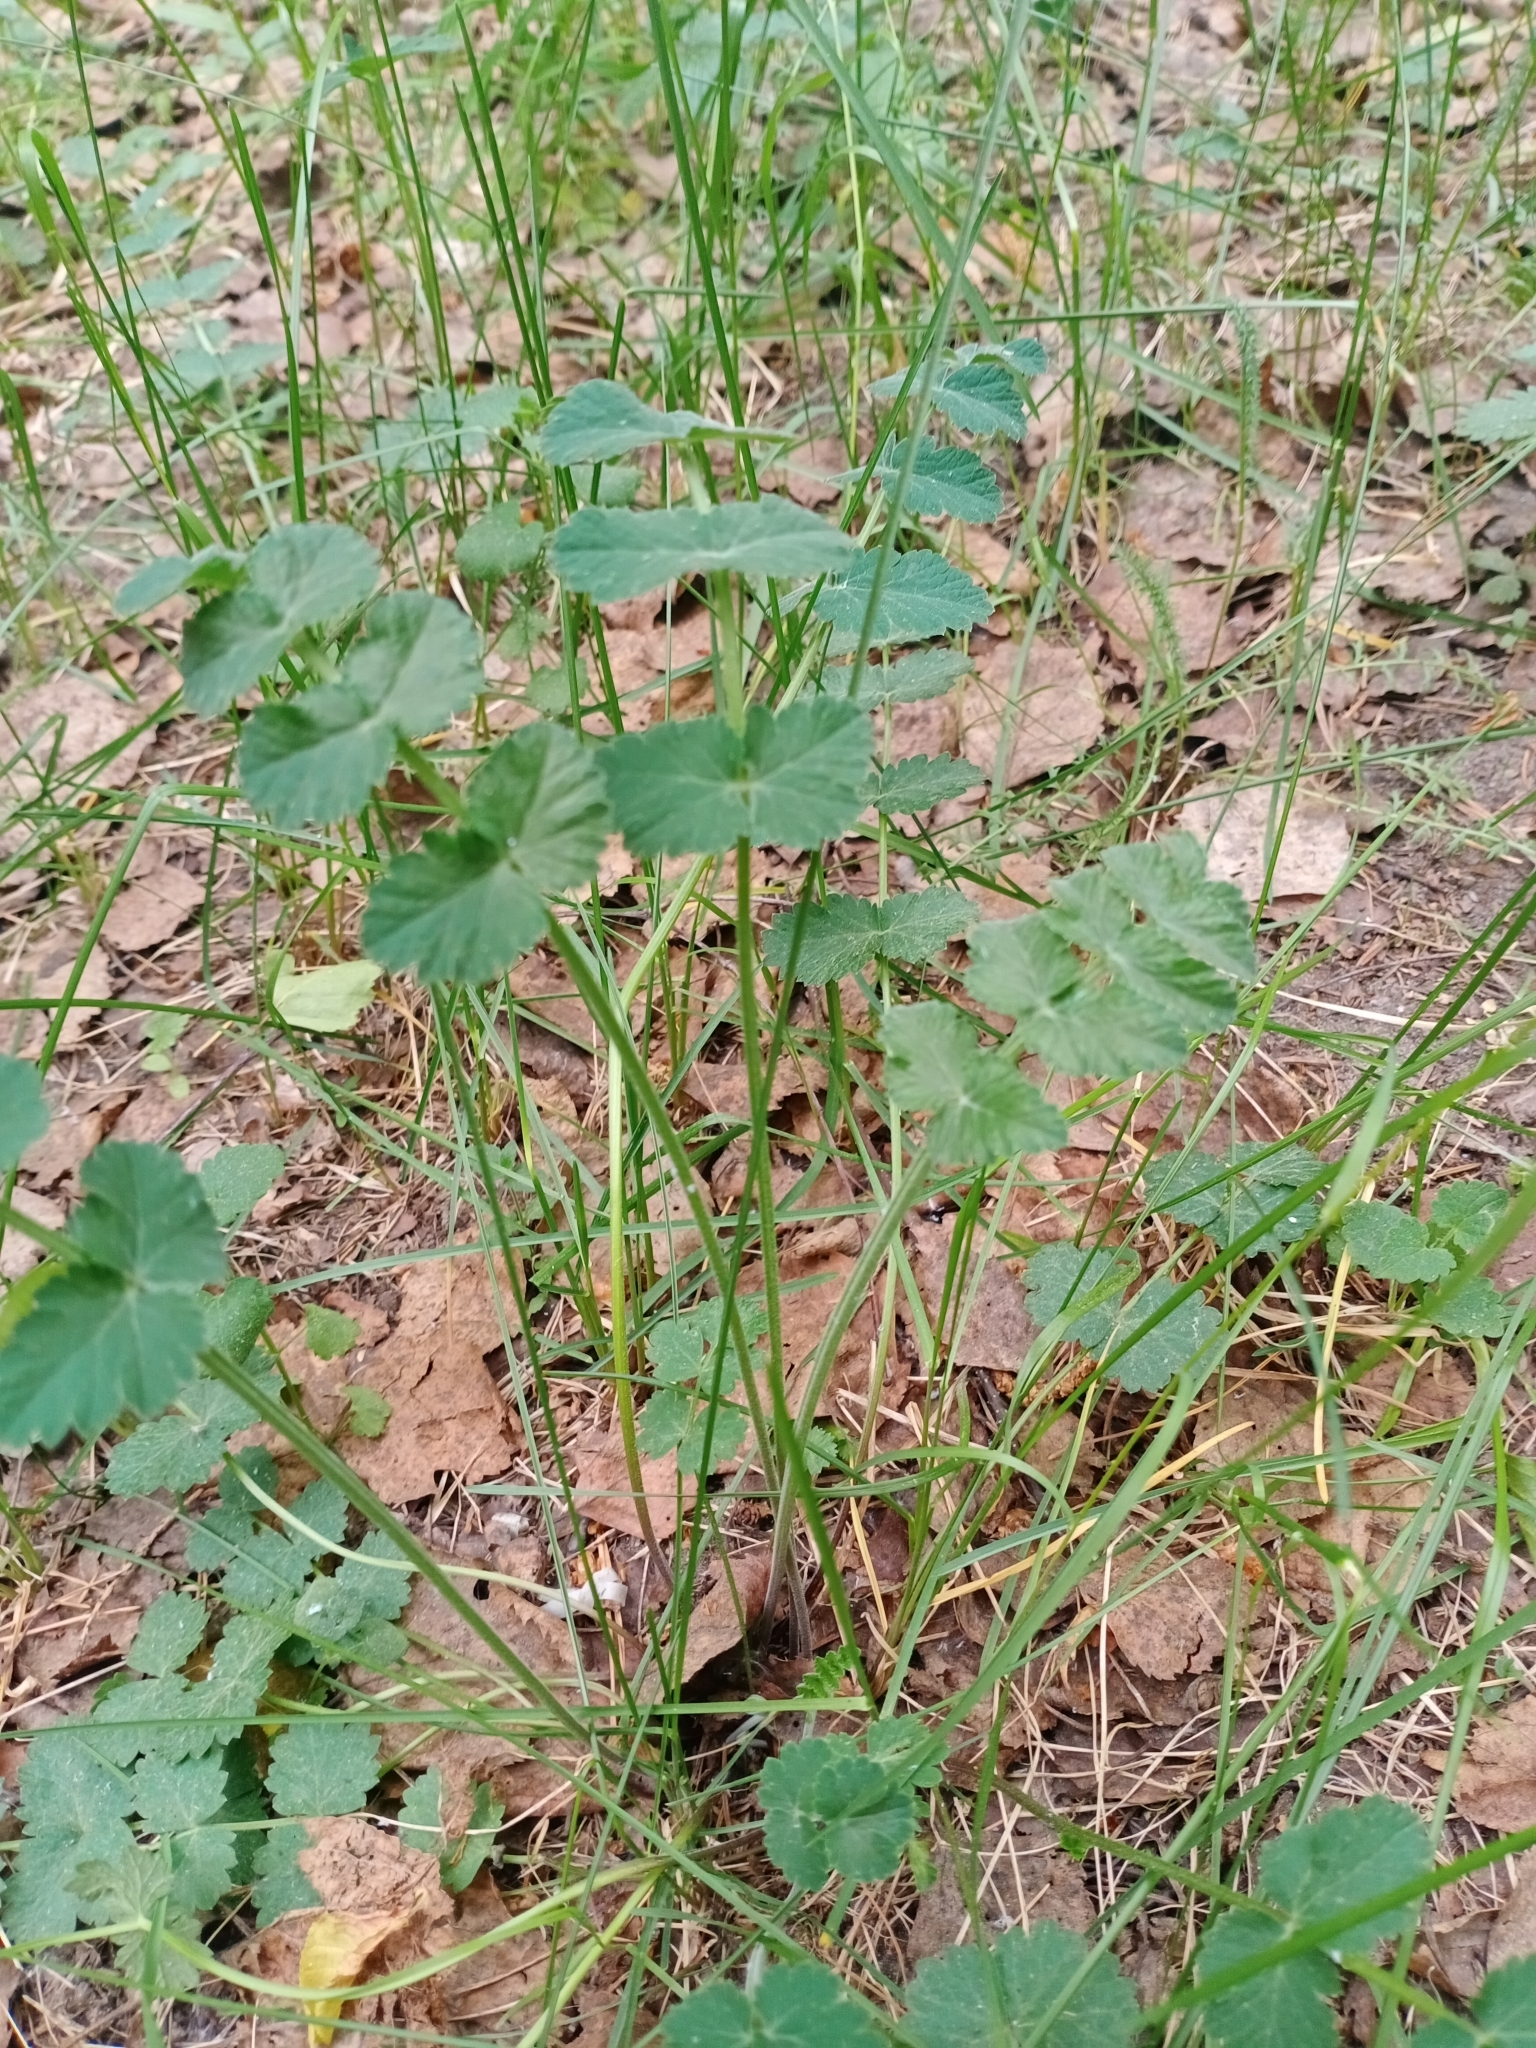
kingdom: Plantae
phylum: Tracheophyta
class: Magnoliopsida
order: Apiales
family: Apiaceae
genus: Pimpinella
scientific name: Pimpinella saxifraga
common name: Burnet-saxifrage
